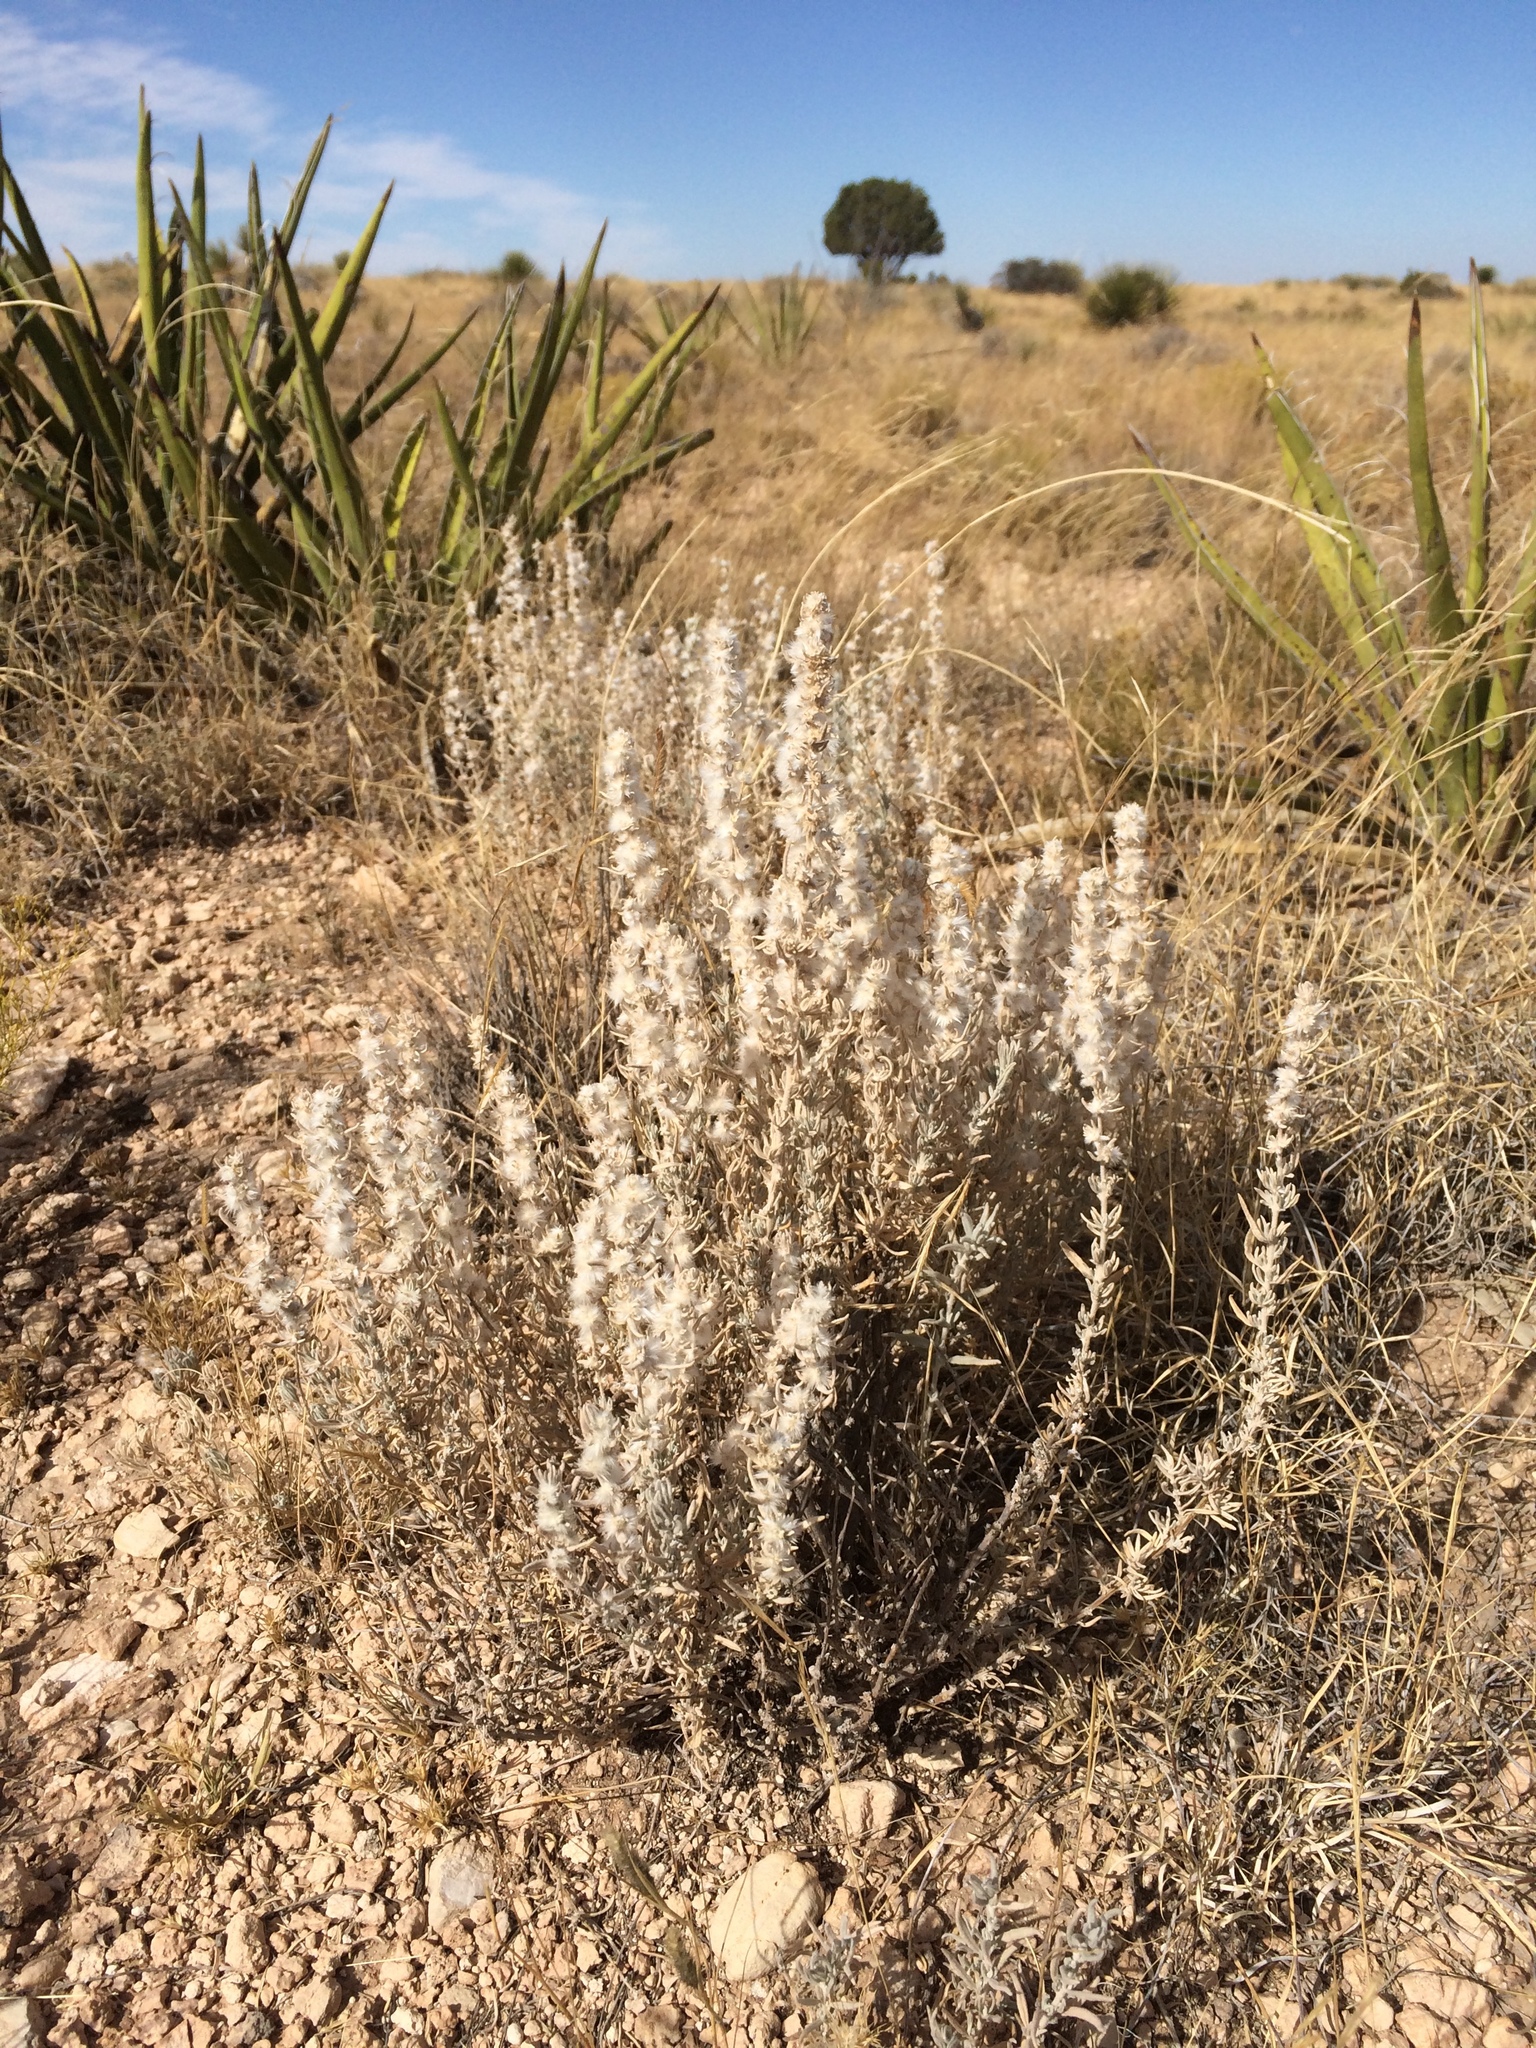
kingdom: Plantae
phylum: Tracheophyta
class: Magnoliopsida
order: Caryophyllales
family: Amaranthaceae
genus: Krascheninnikovia
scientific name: Krascheninnikovia lanata
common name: Winterfat
